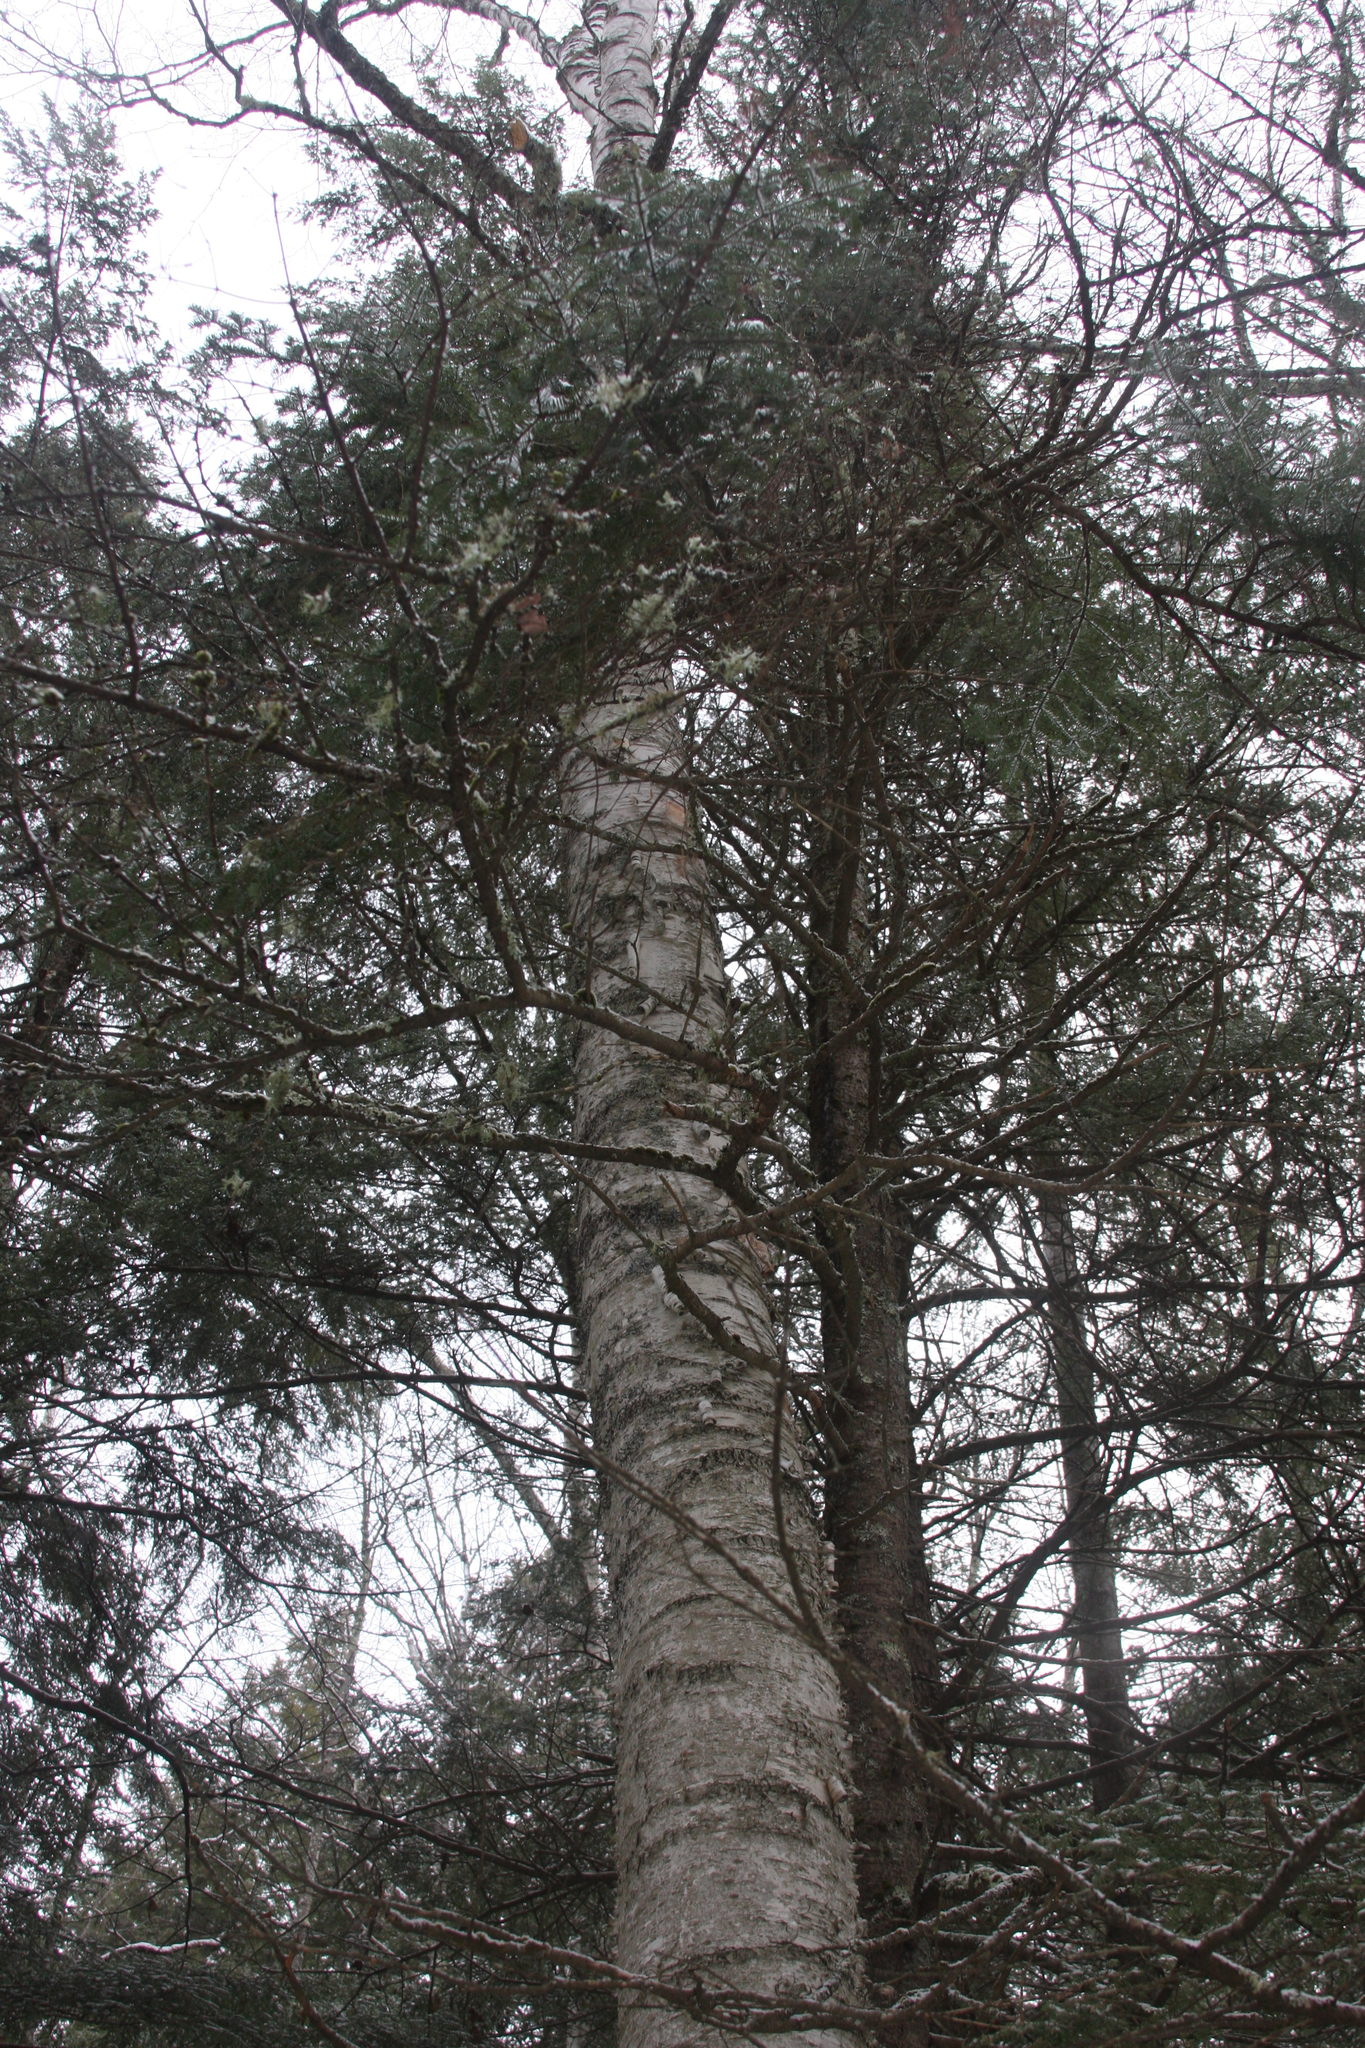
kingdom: Plantae
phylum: Tracheophyta
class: Magnoliopsida
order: Fagales
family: Betulaceae
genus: Betula
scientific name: Betula alleghaniensis
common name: Yellow birch
